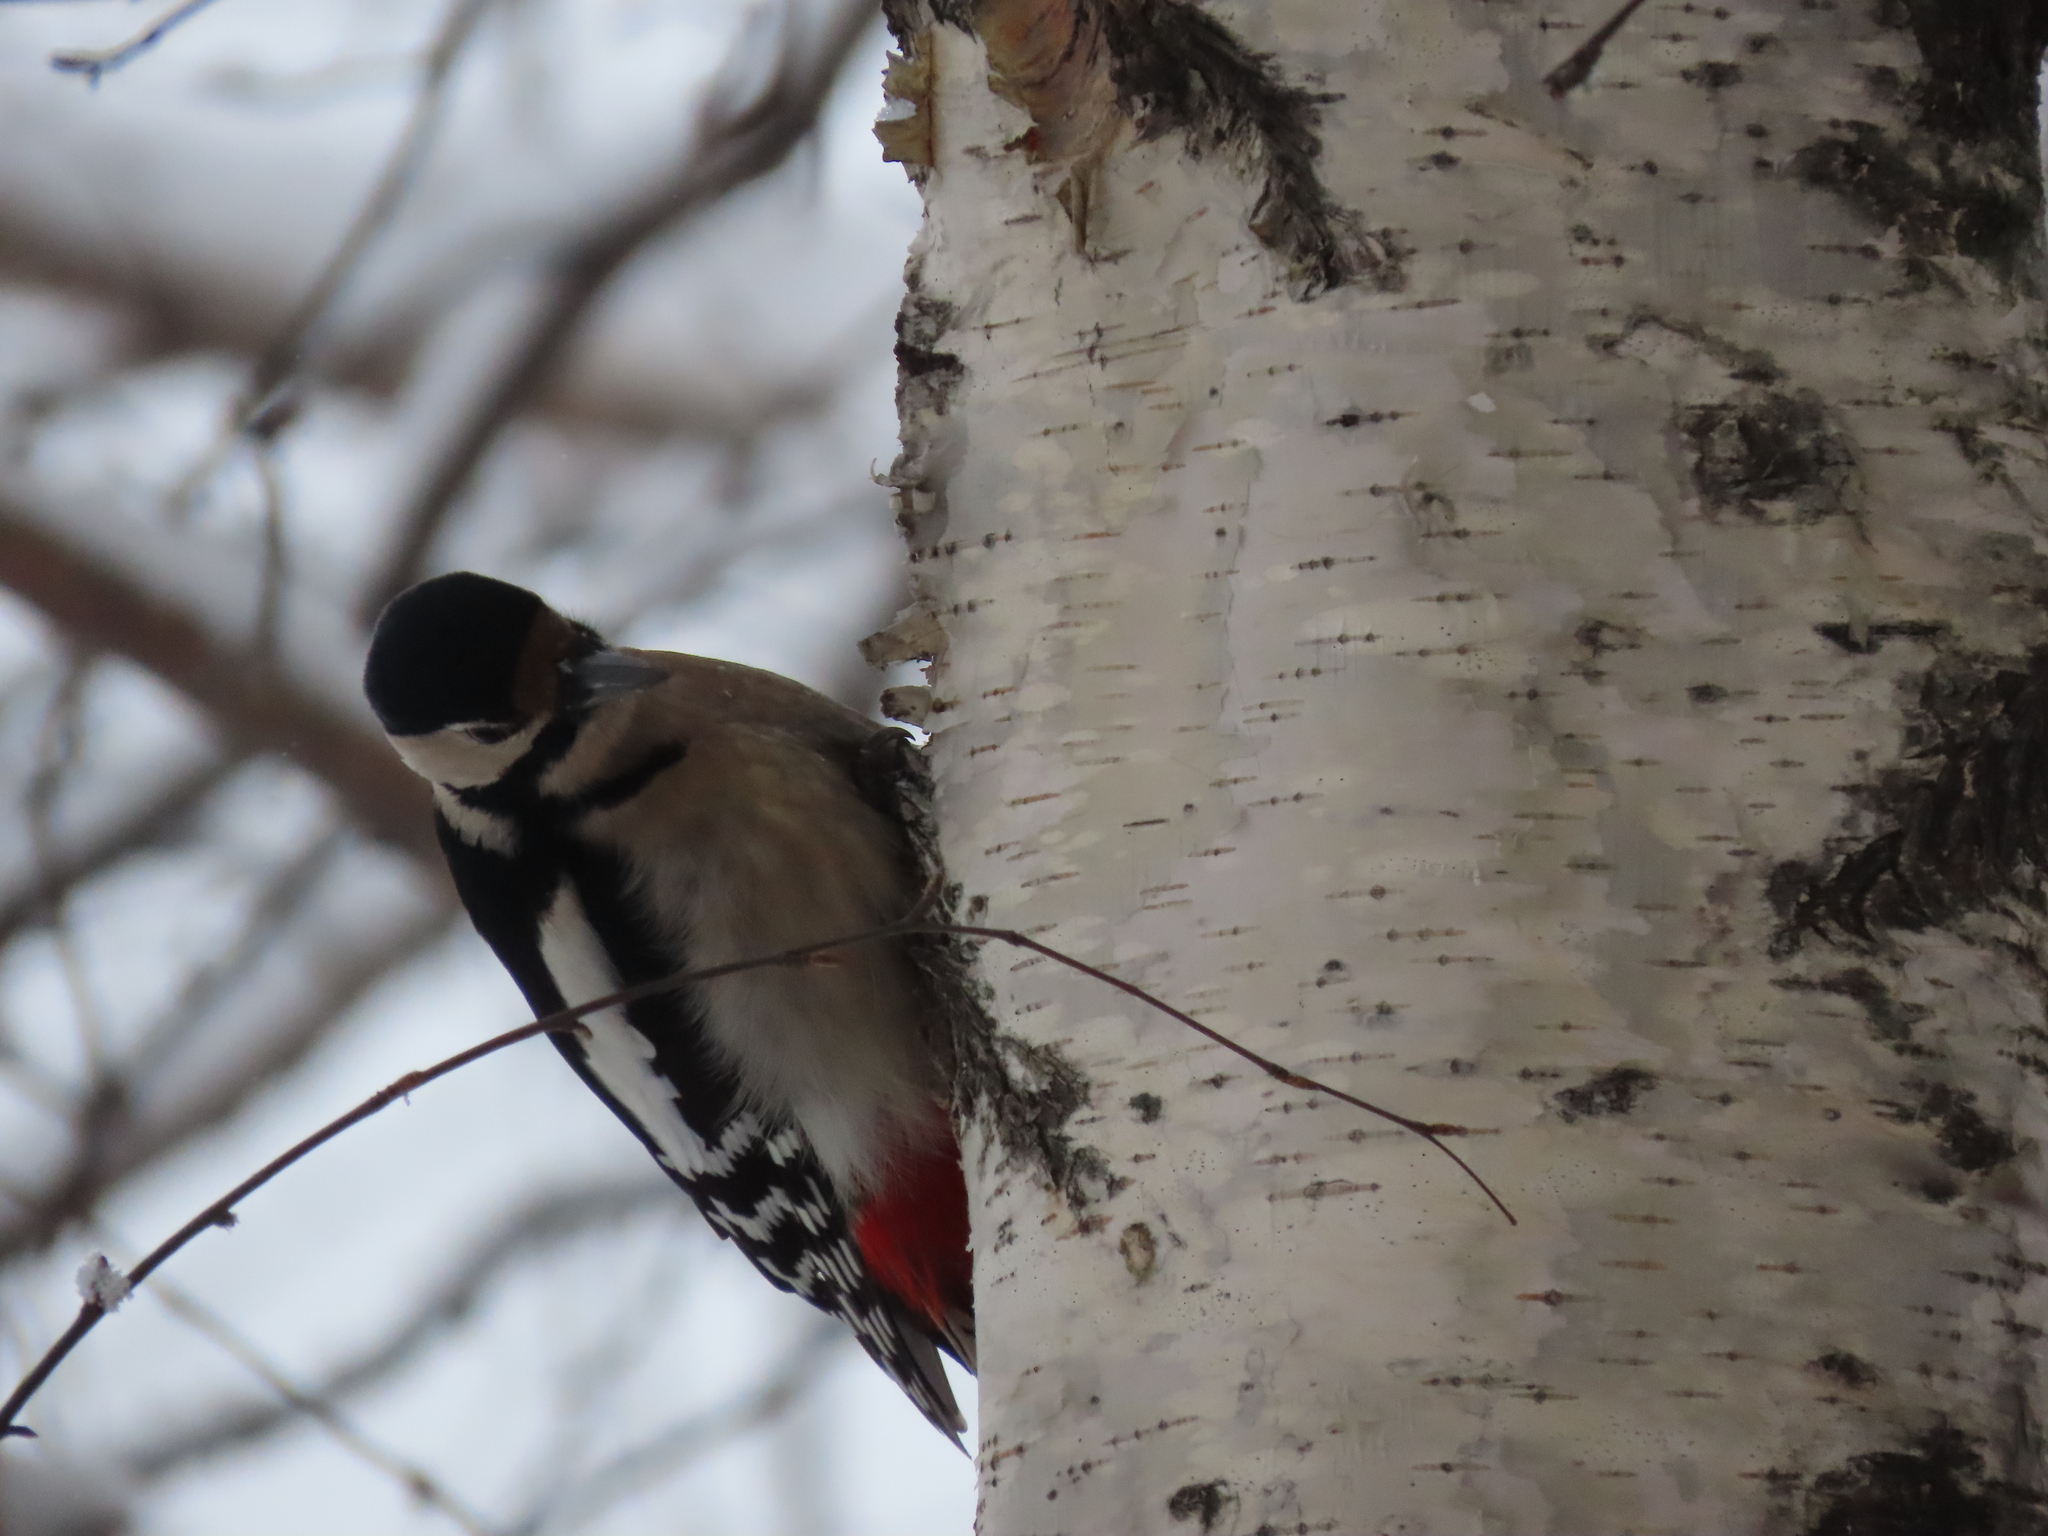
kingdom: Animalia
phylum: Chordata
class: Aves
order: Piciformes
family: Picidae
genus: Dendrocopos
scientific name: Dendrocopos major
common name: Great spotted woodpecker
